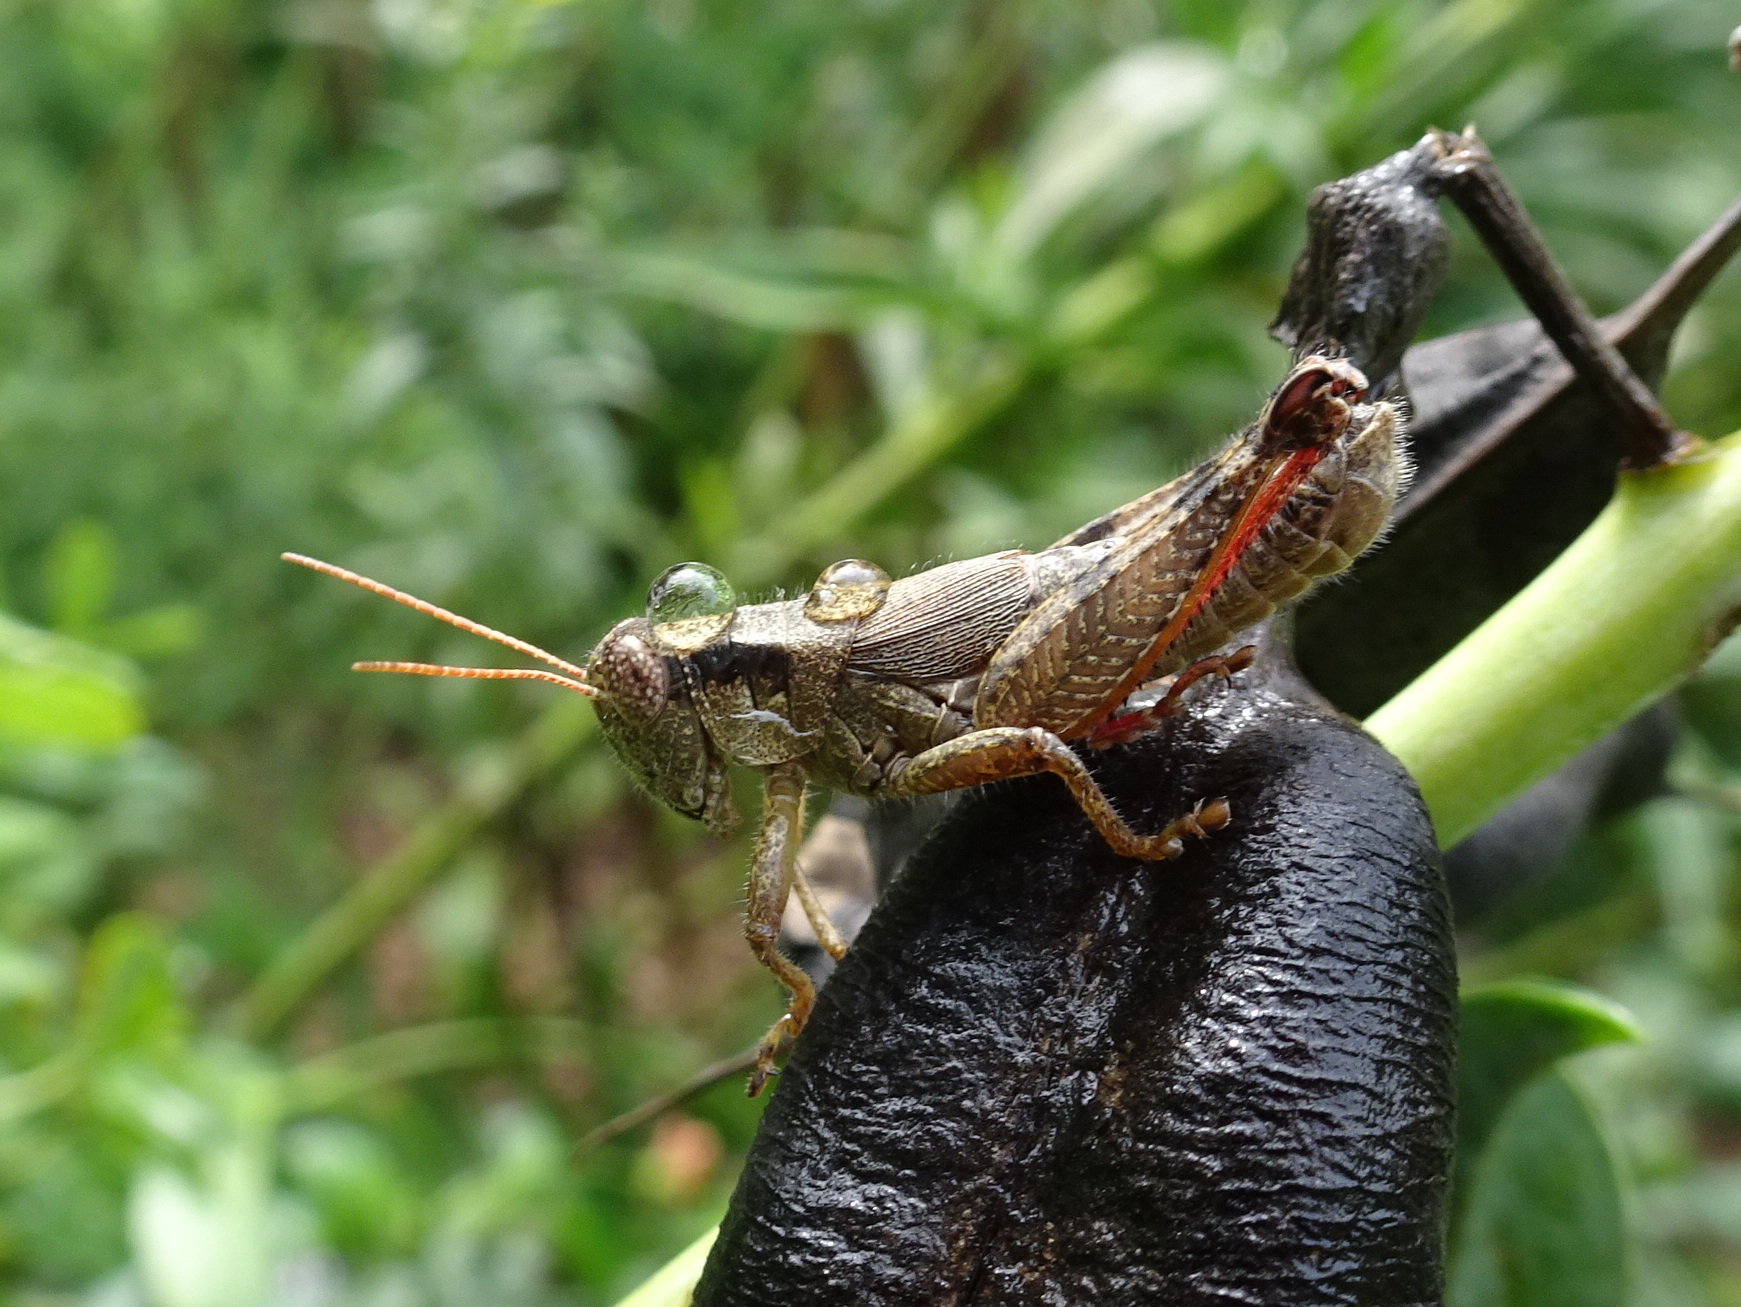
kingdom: Animalia
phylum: Arthropoda
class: Insecta
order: Orthoptera
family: Acrididae
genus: Melanoplus
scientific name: Melanoplus scudderi
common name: Scudder's short-winged locust
